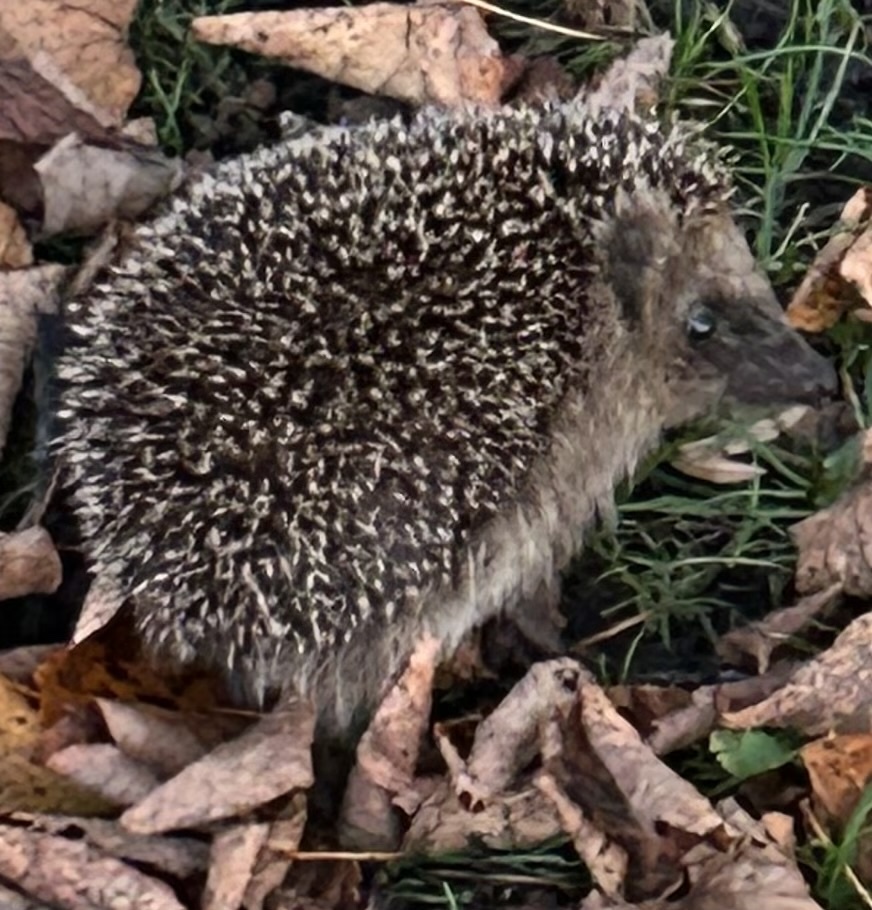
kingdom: Animalia
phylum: Chordata
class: Mammalia
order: Erinaceomorpha
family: Erinaceidae
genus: Erinaceus
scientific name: Erinaceus europaeus
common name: West european hedgehog
